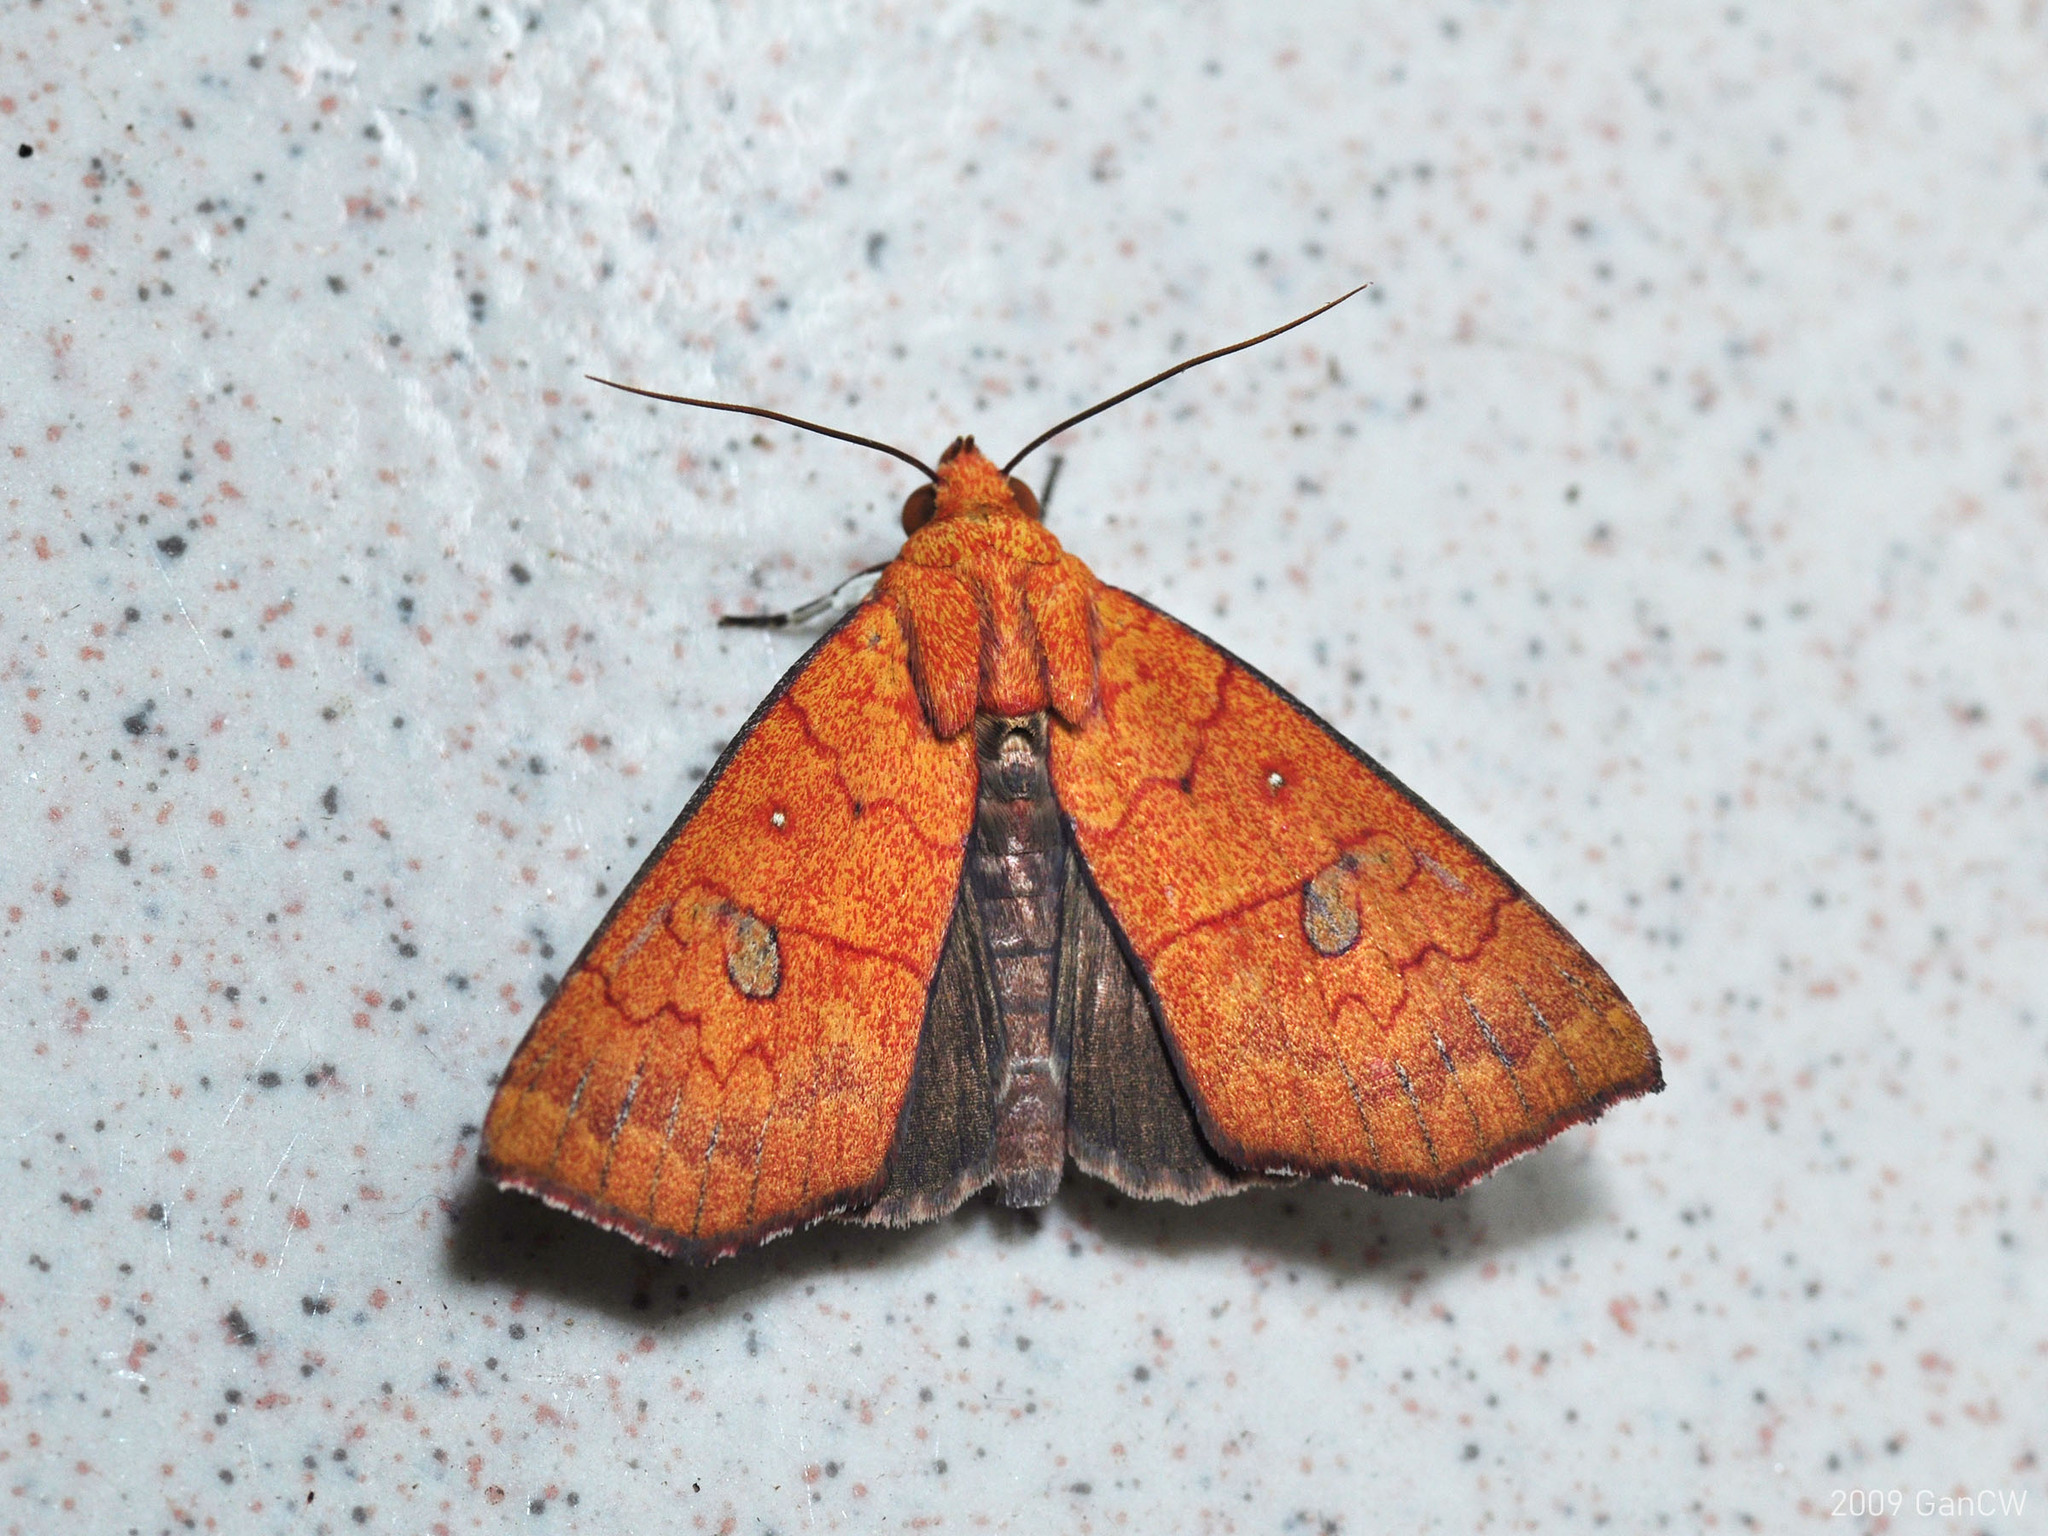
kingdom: Animalia
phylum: Arthropoda
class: Insecta
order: Lepidoptera
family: Erebidae
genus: Rusicada
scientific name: Rusicada combinans
